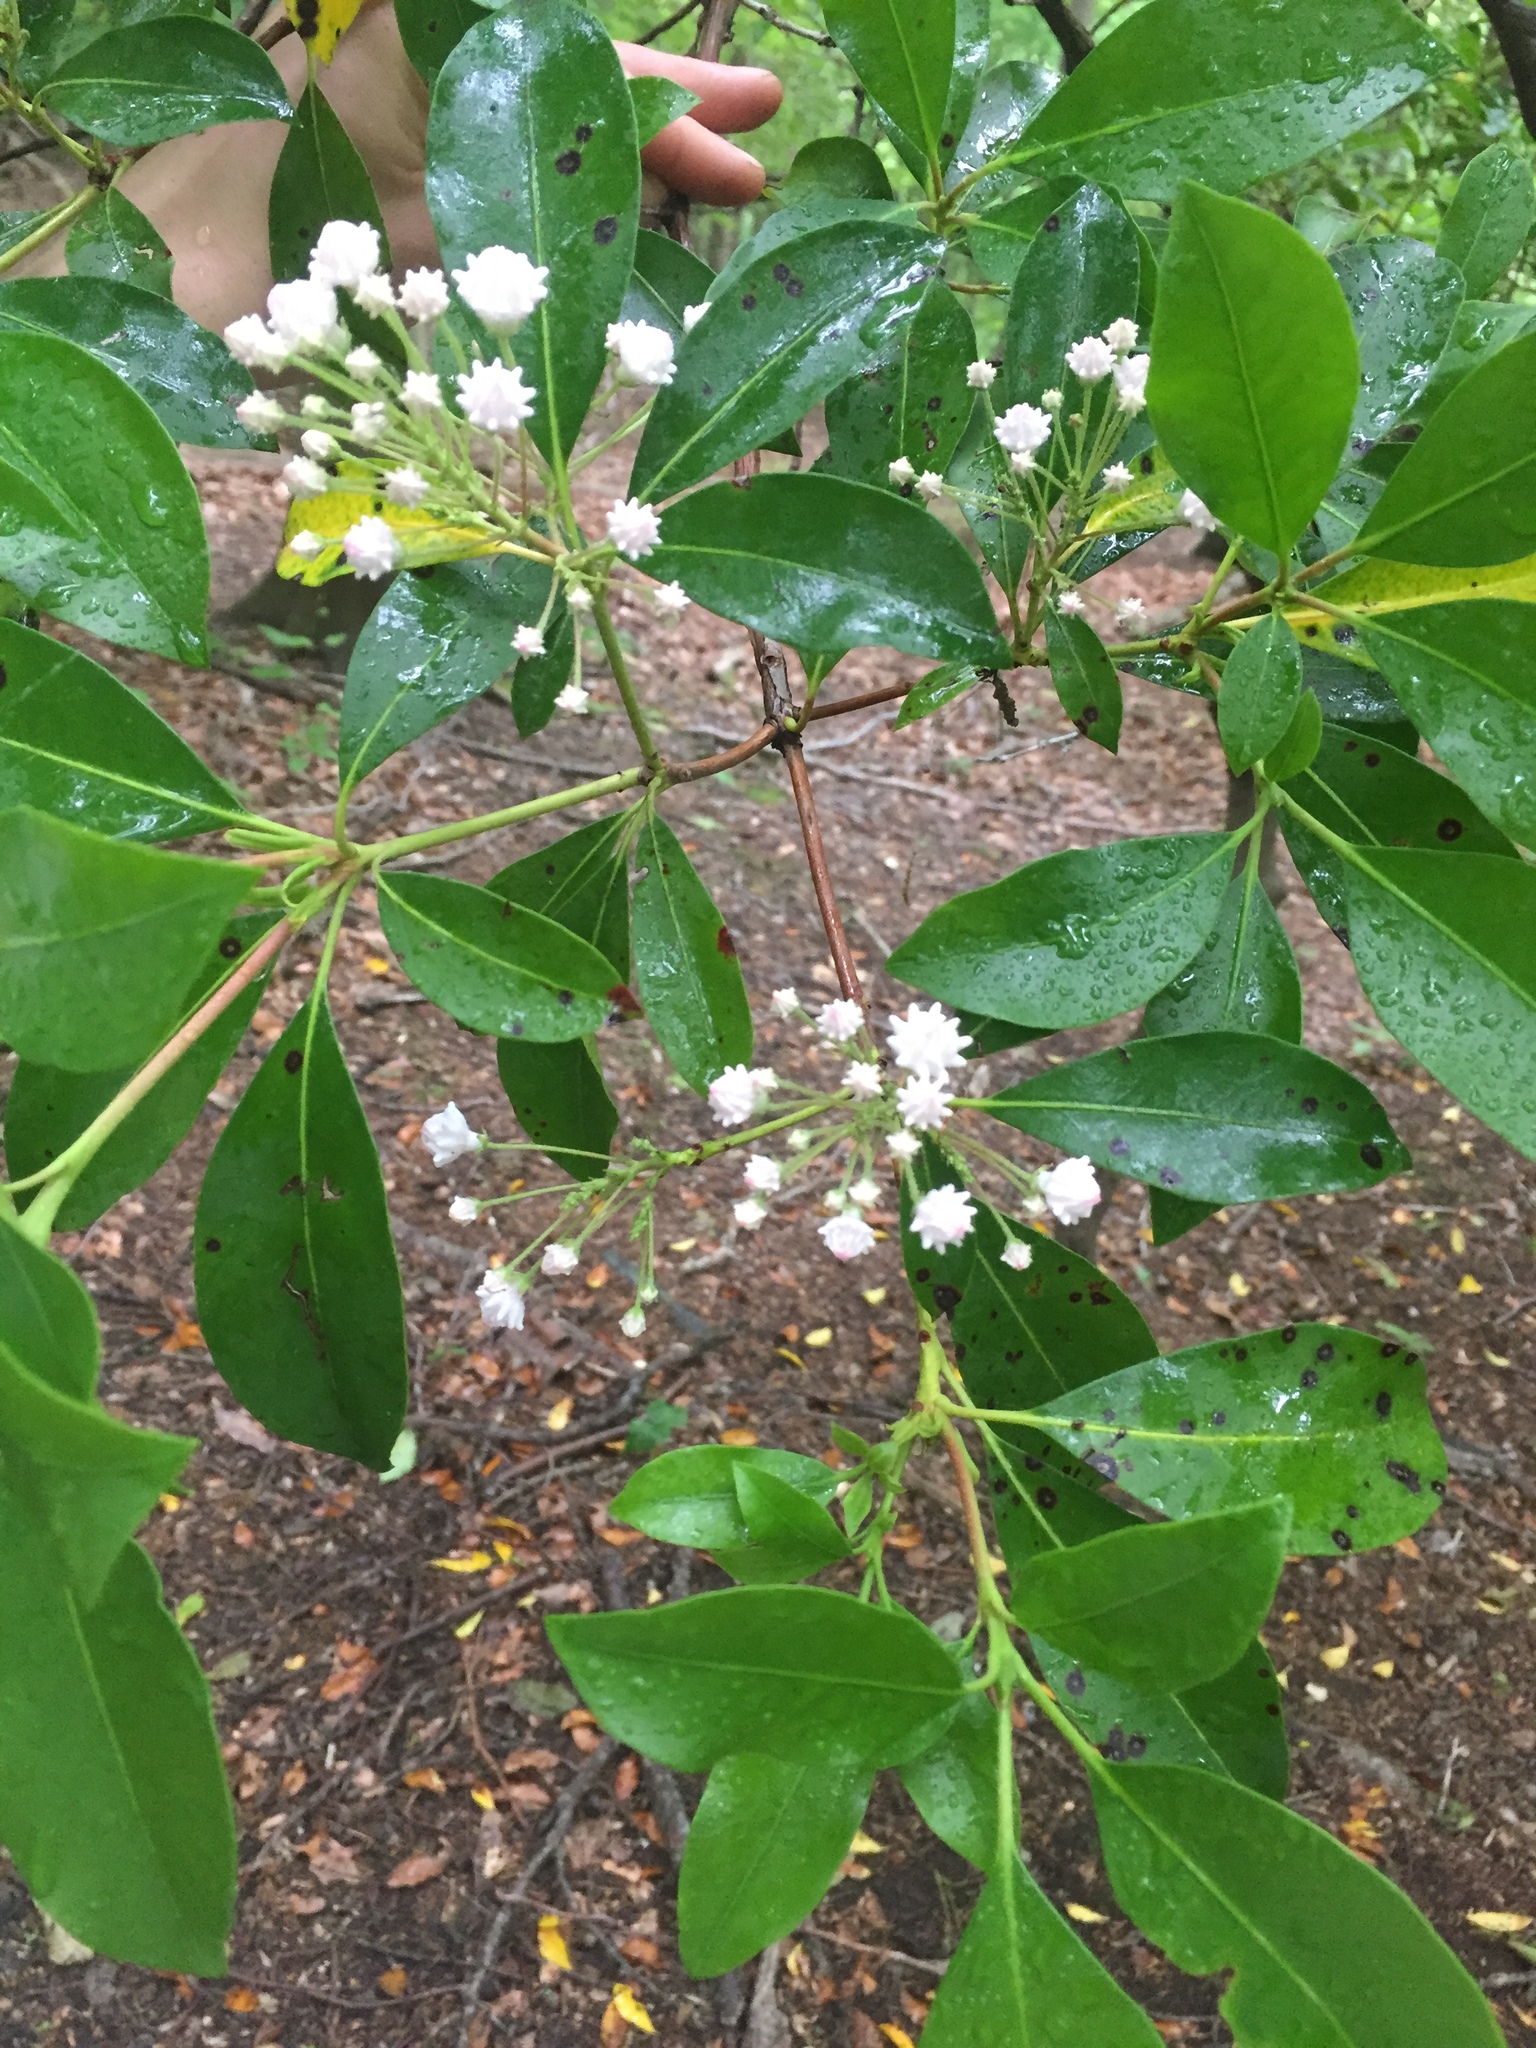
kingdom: Plantae
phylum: Tracheophyta
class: Magnoliopsida
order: Ericales
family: Ericaceae
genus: Kalmia
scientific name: Kalmia latifolia
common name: Mountain-laurel
